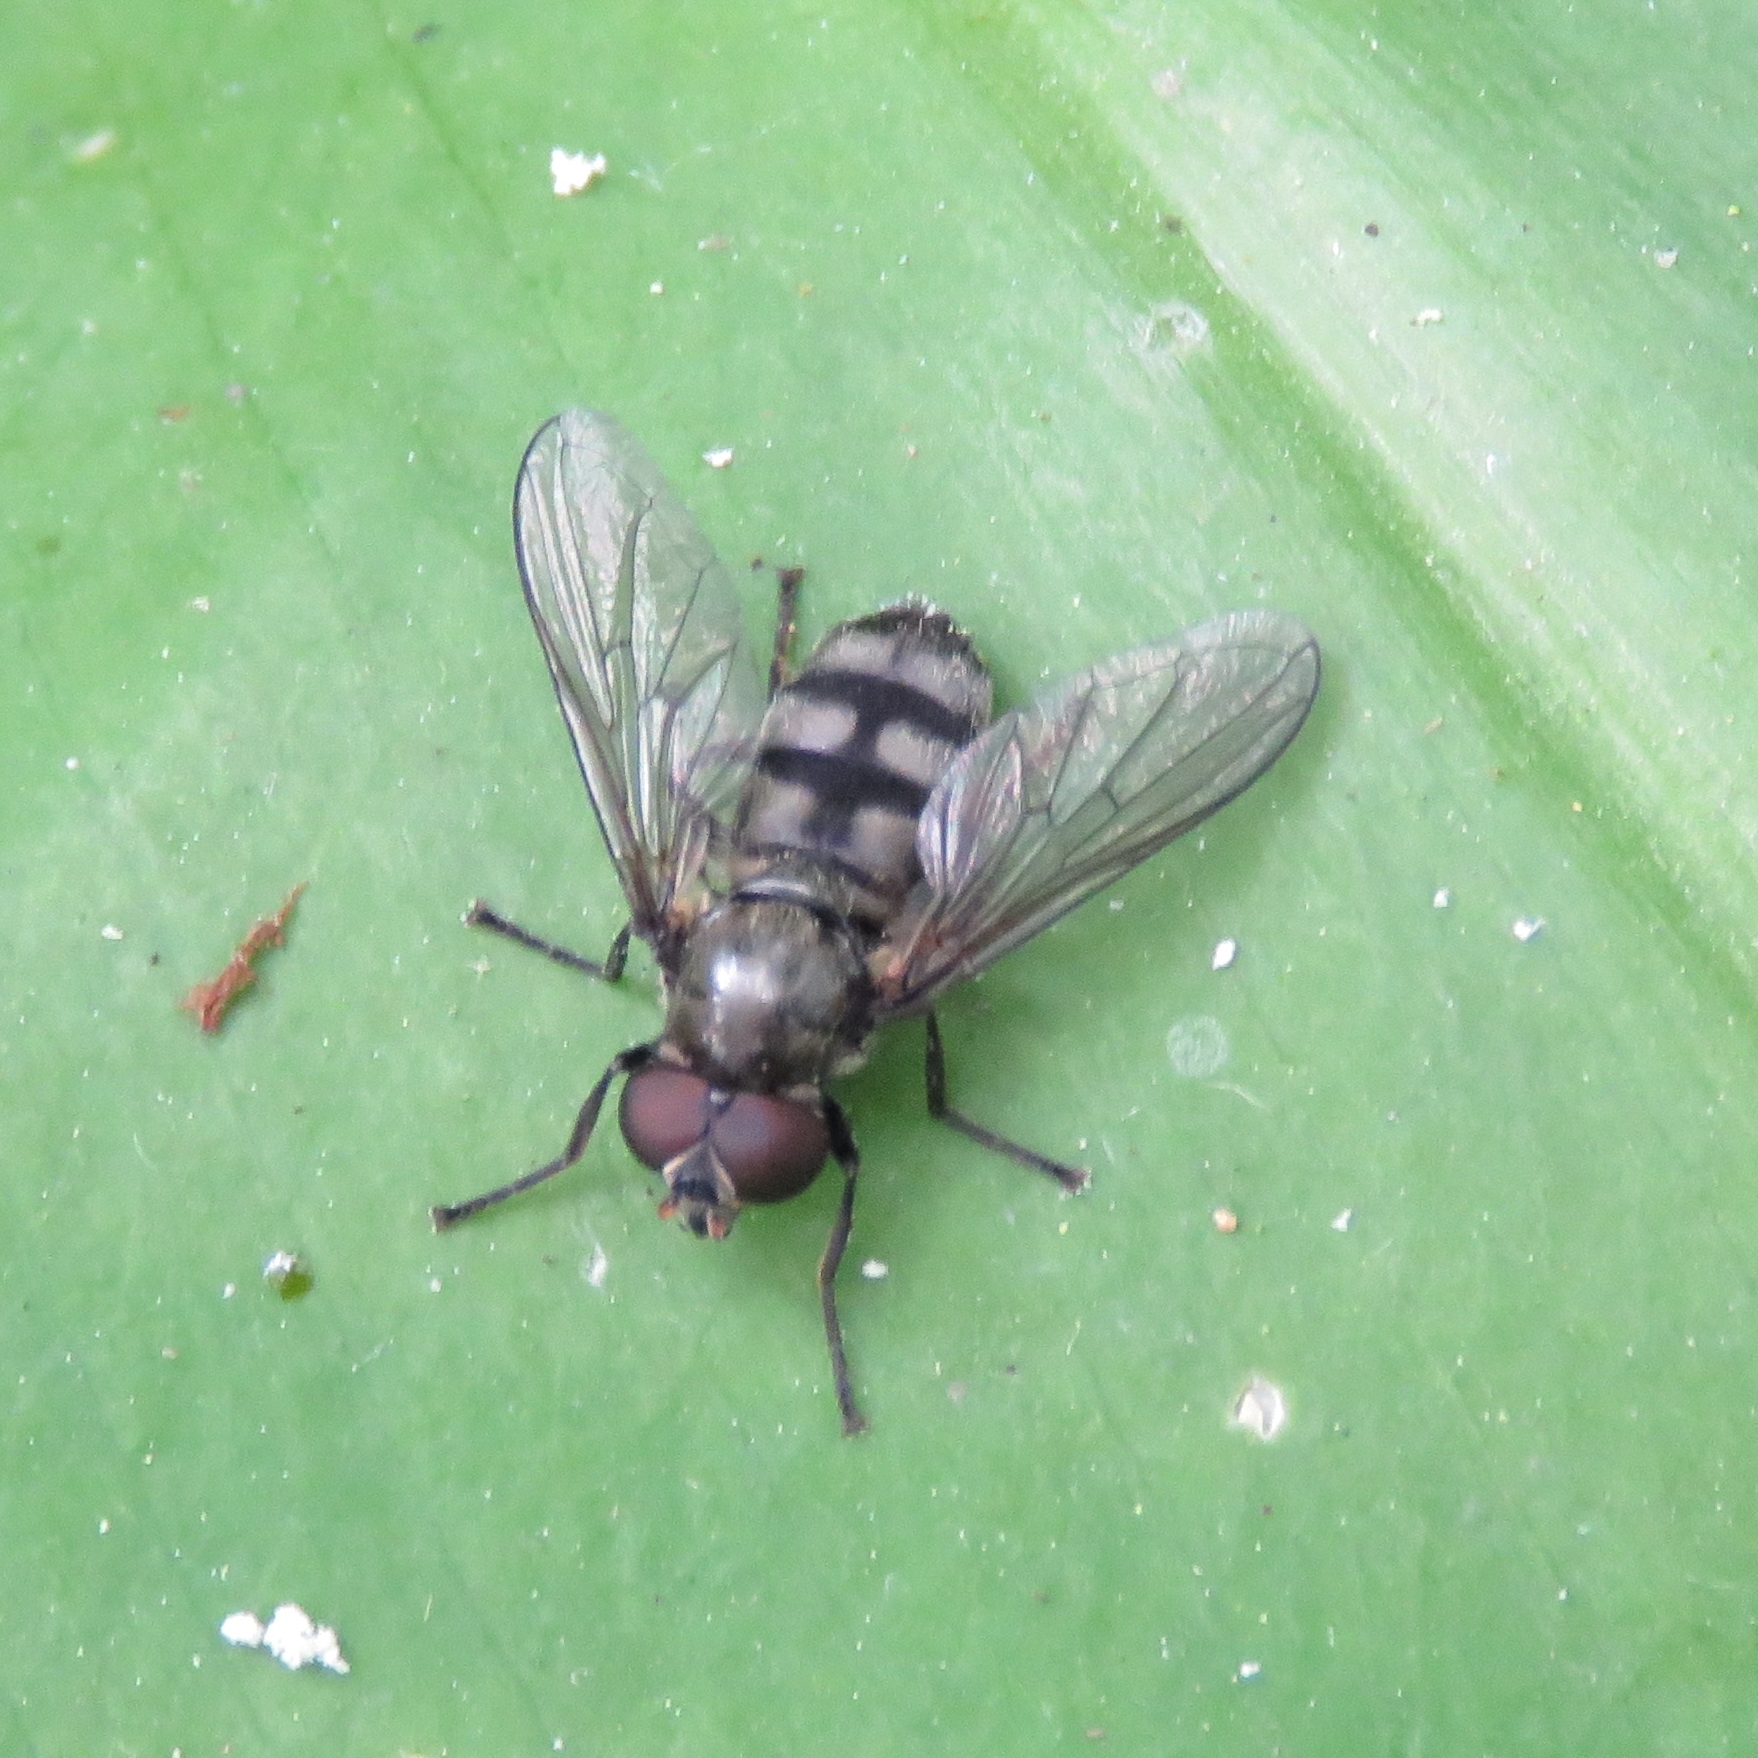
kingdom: Animalia
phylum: Arthropoda
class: Insecta
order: Diptera
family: Syrphidae
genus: Portevinia
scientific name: Portevinia maculata
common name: Ramson's hoverfly
